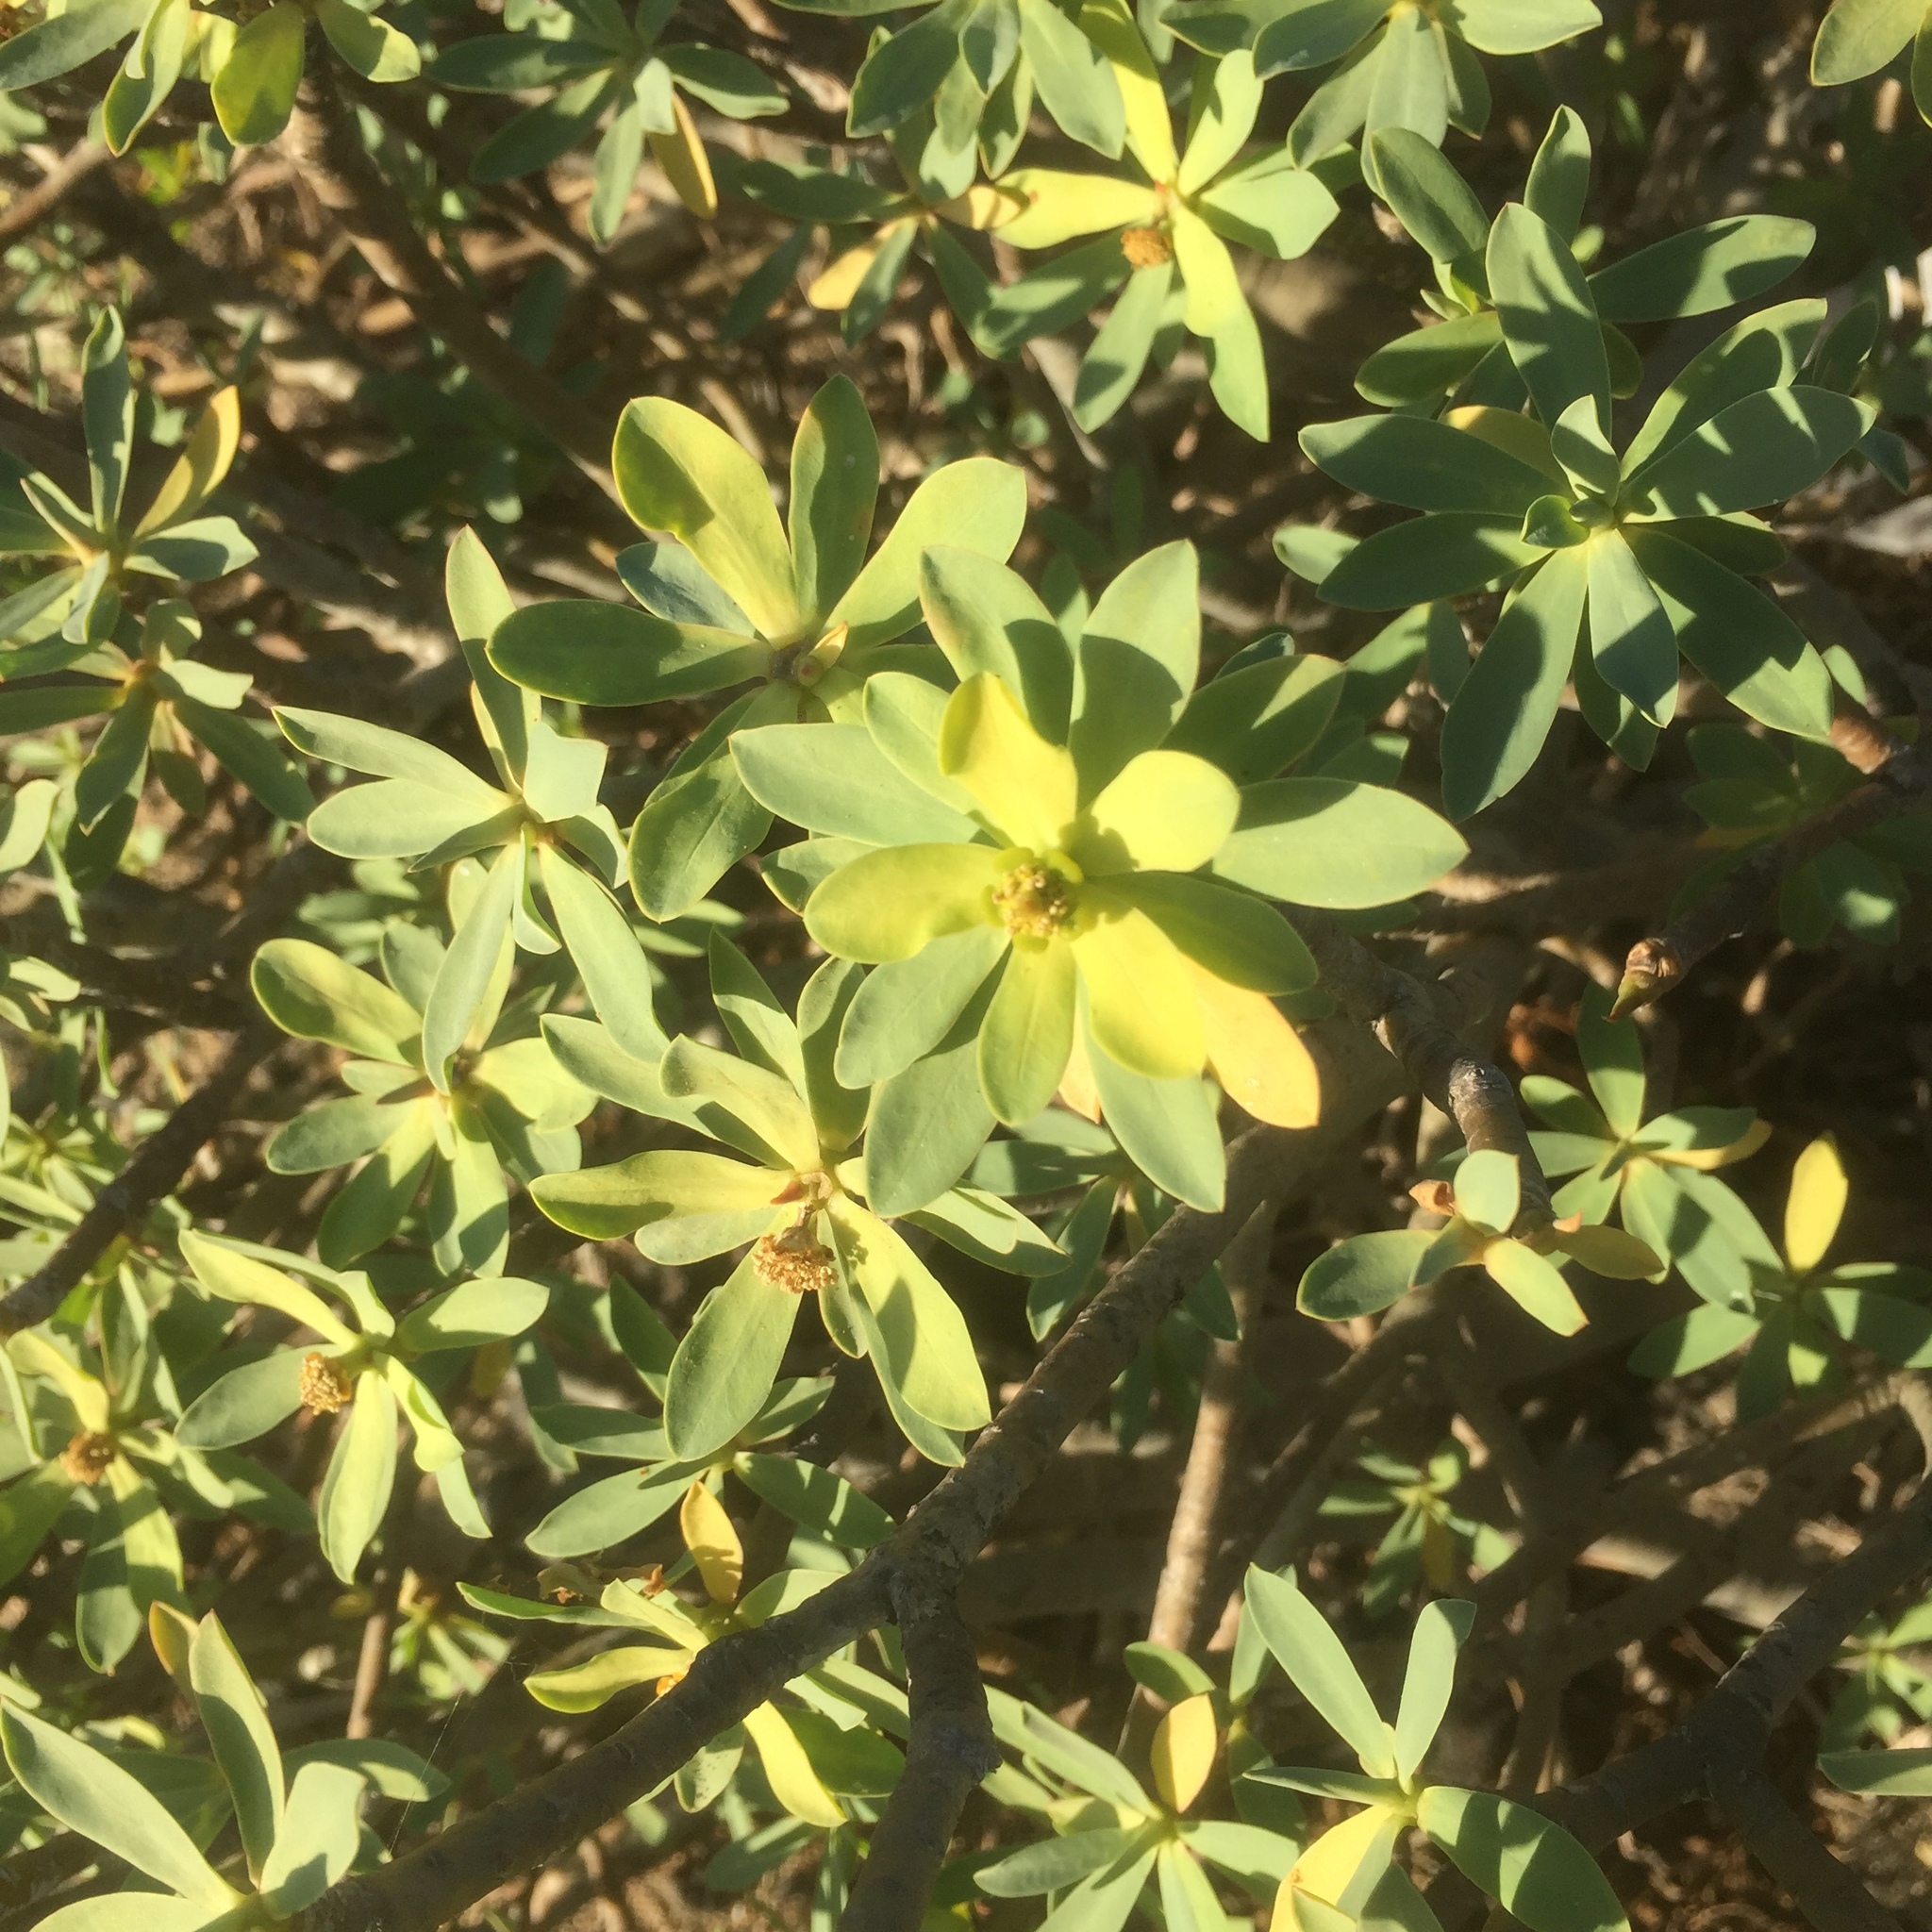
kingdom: Plantae
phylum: Tracheophyta
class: Magnoliopsida
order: Malpighiales
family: Euphorbiaceae
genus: Euphorbia
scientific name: Euphorbia balsamifera
